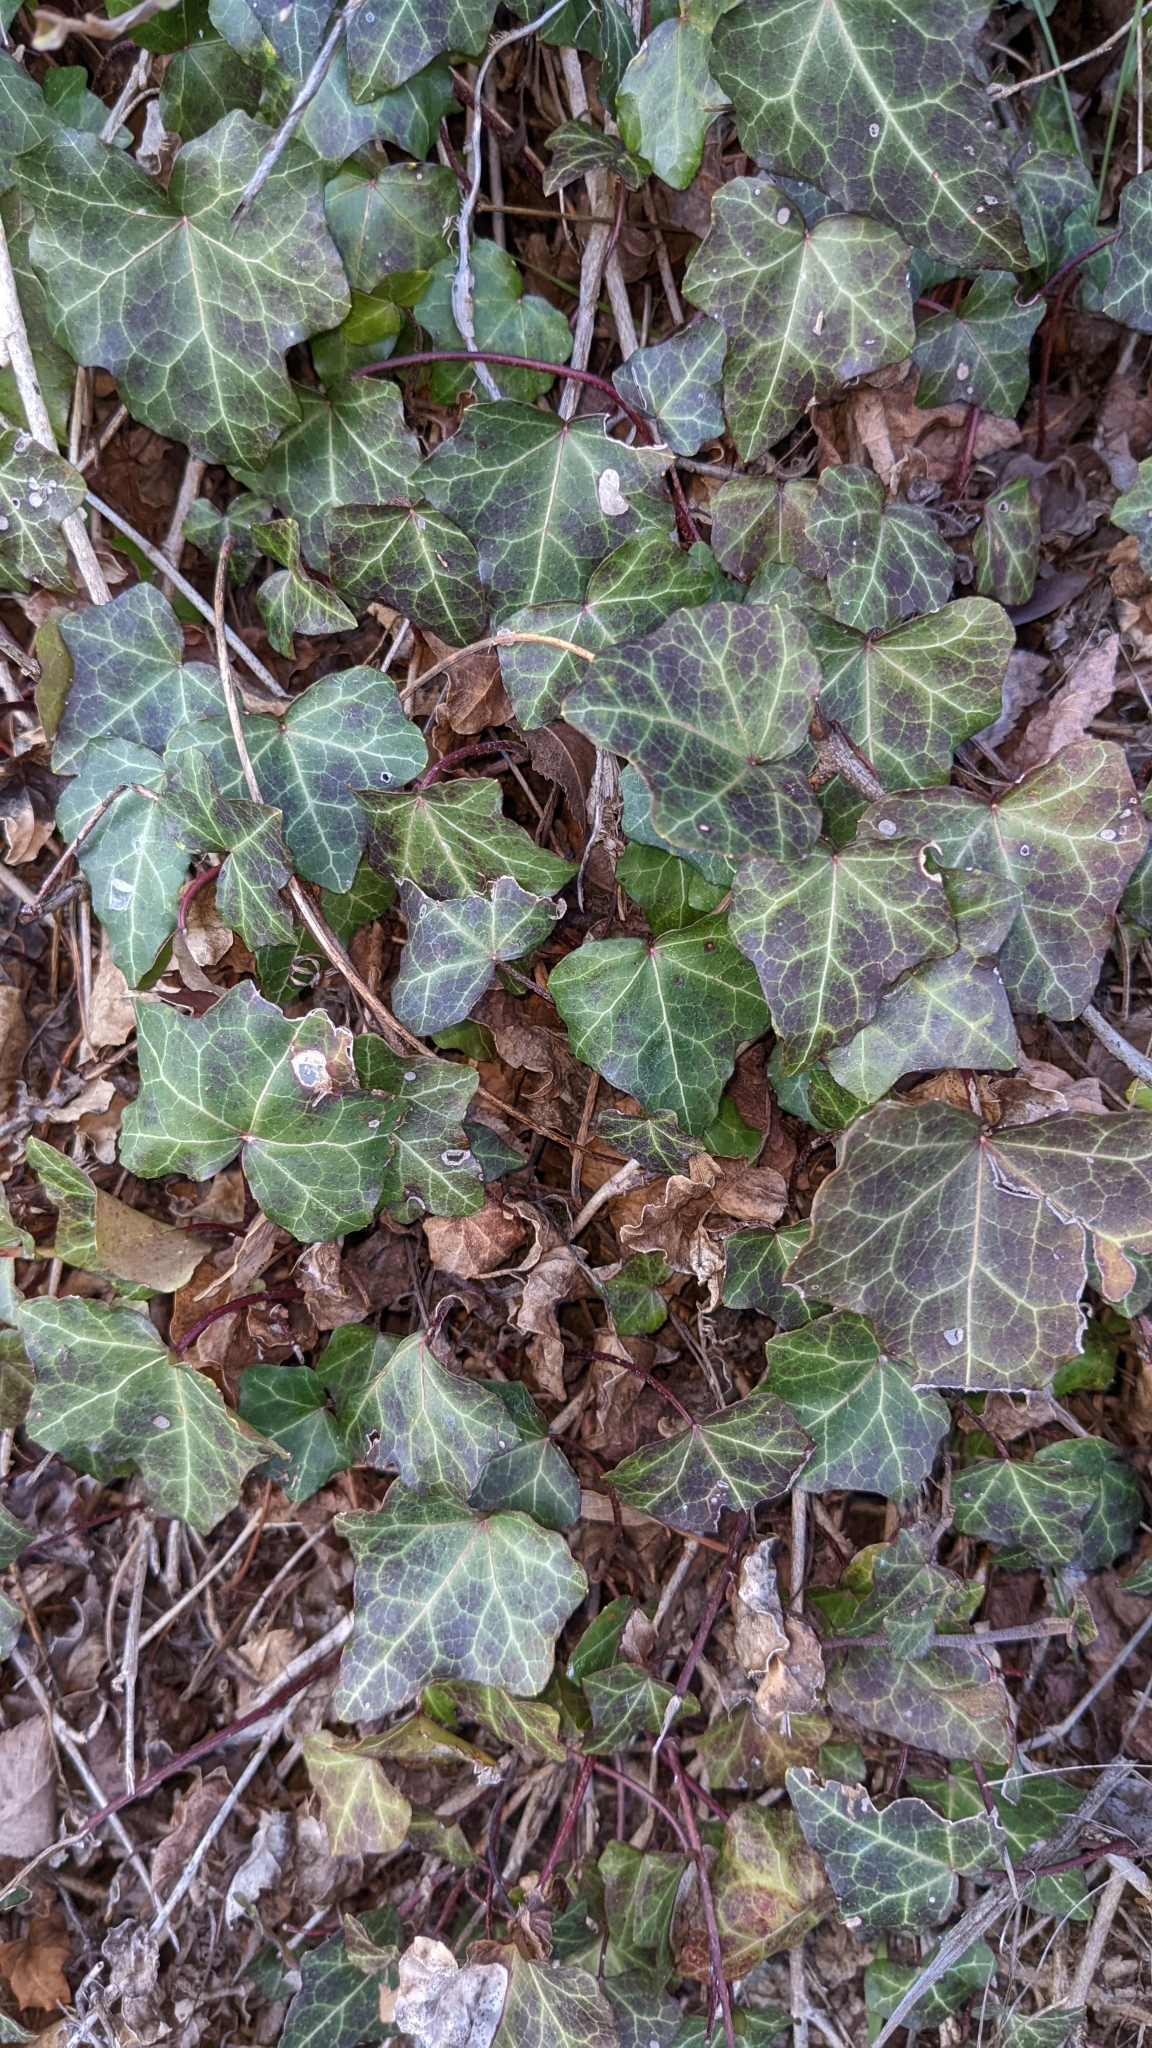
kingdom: Plantae
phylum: Tracheophyta
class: Magnoliopsida
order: Apiales
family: Araliaceae
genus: Hedera
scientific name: Hedera helix
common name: Ivy
